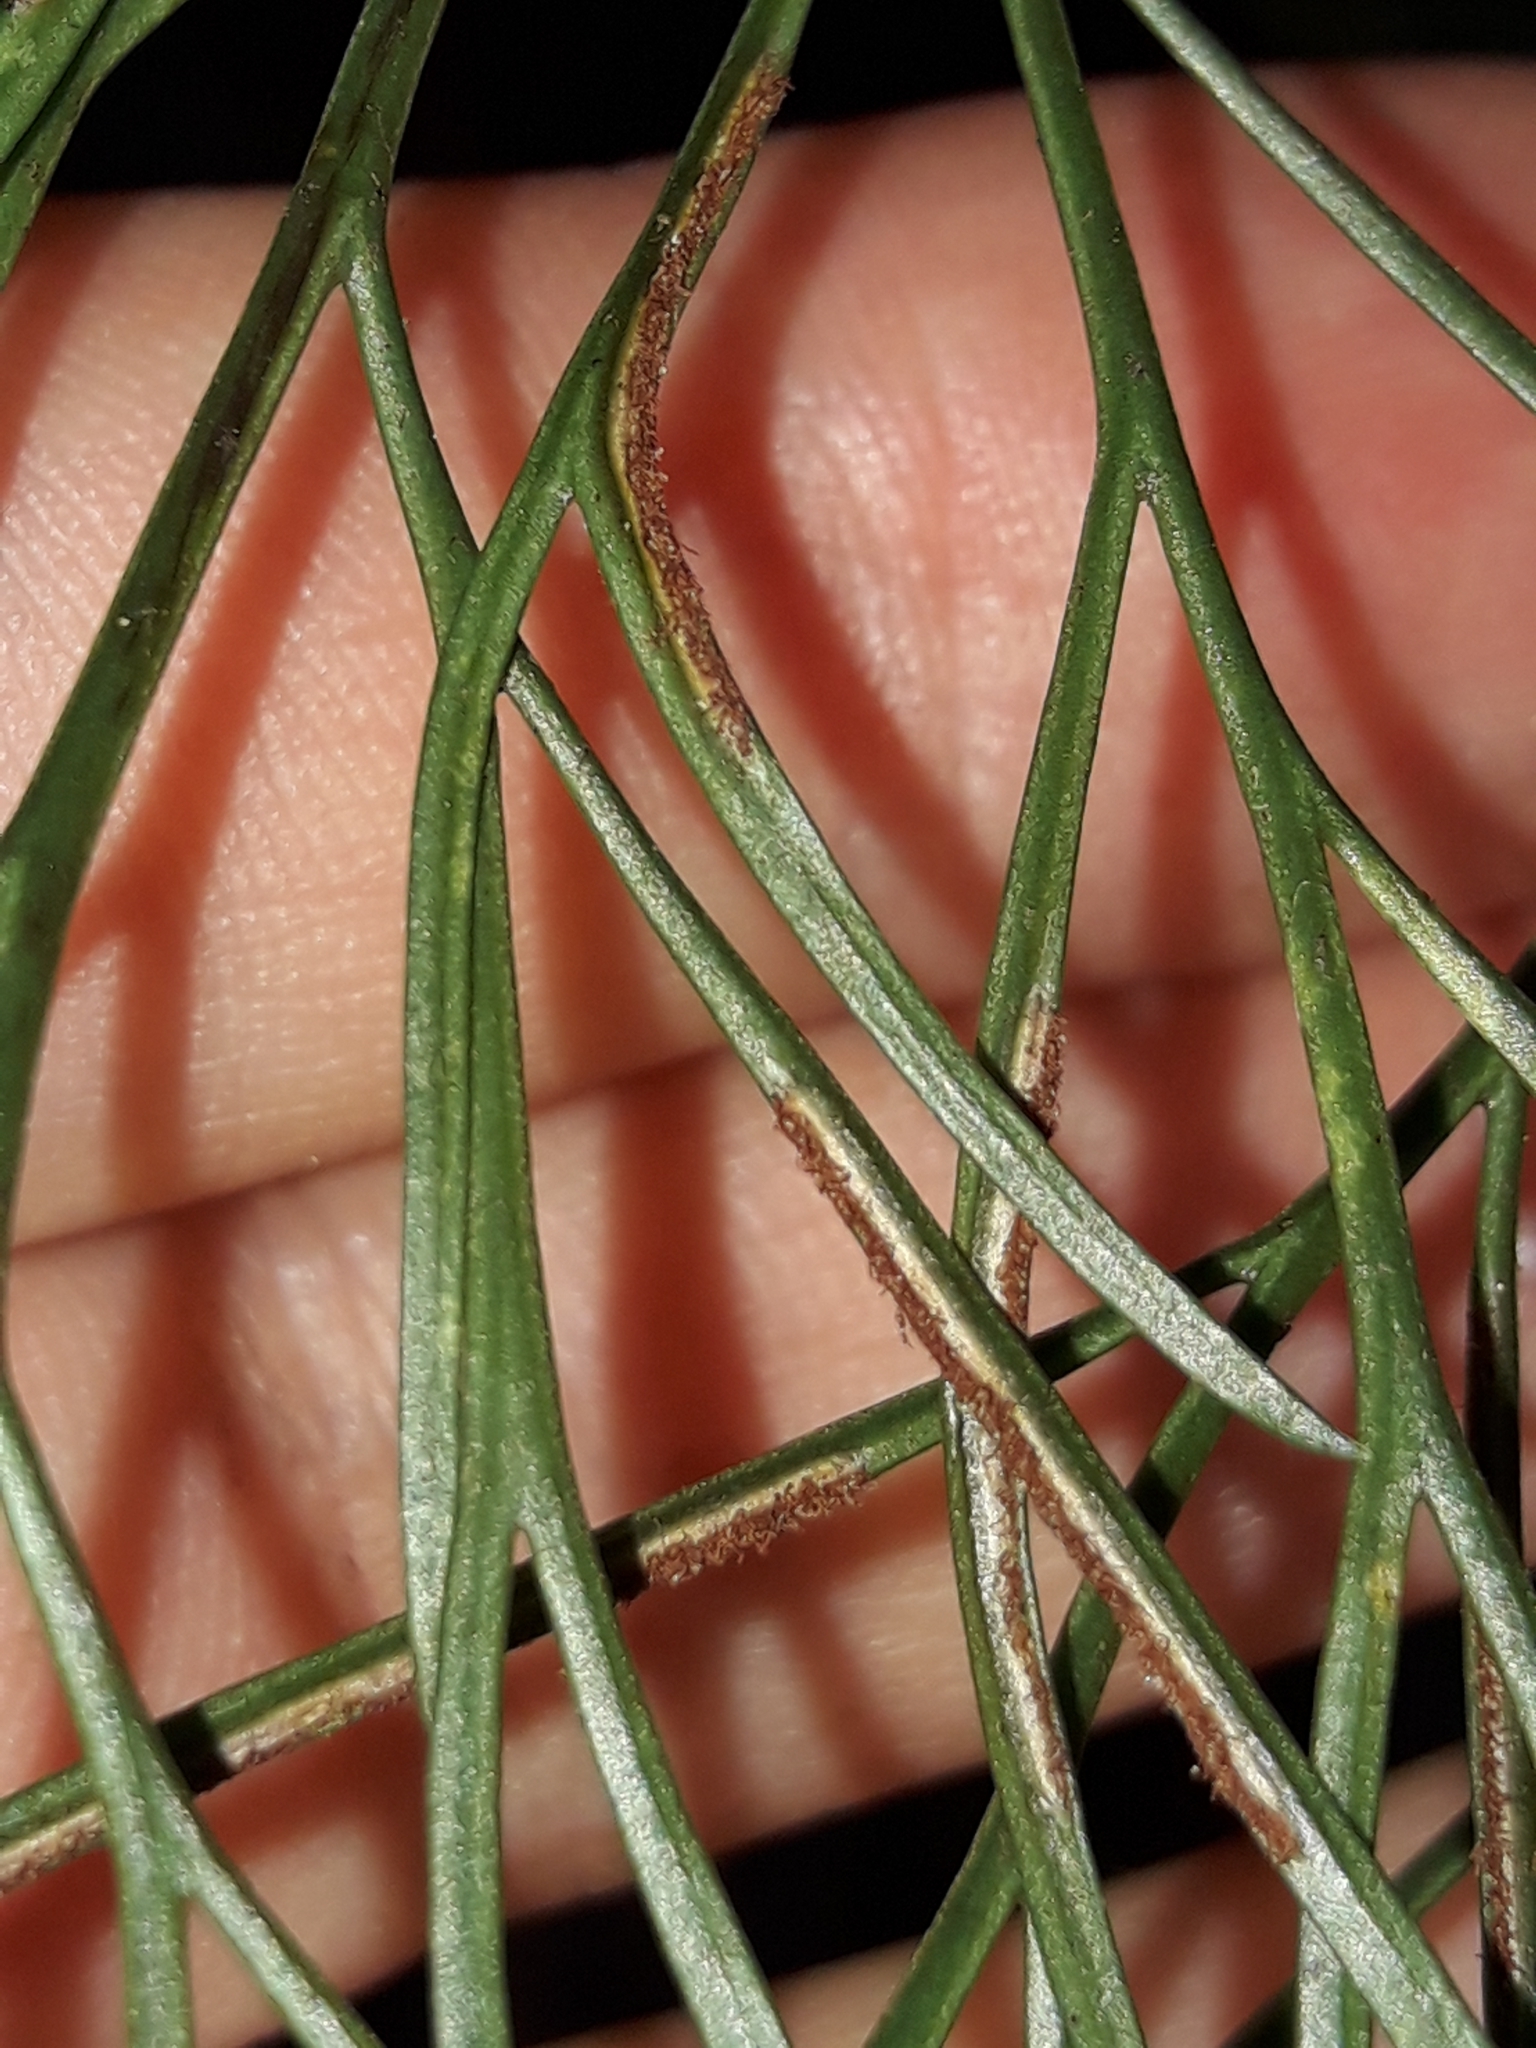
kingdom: Plantae
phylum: Tracheophyta
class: Polypodiopsida
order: Polypodiales
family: Aspleniaceae
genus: Asplenium
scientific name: Asplenium novae-caledoniae
